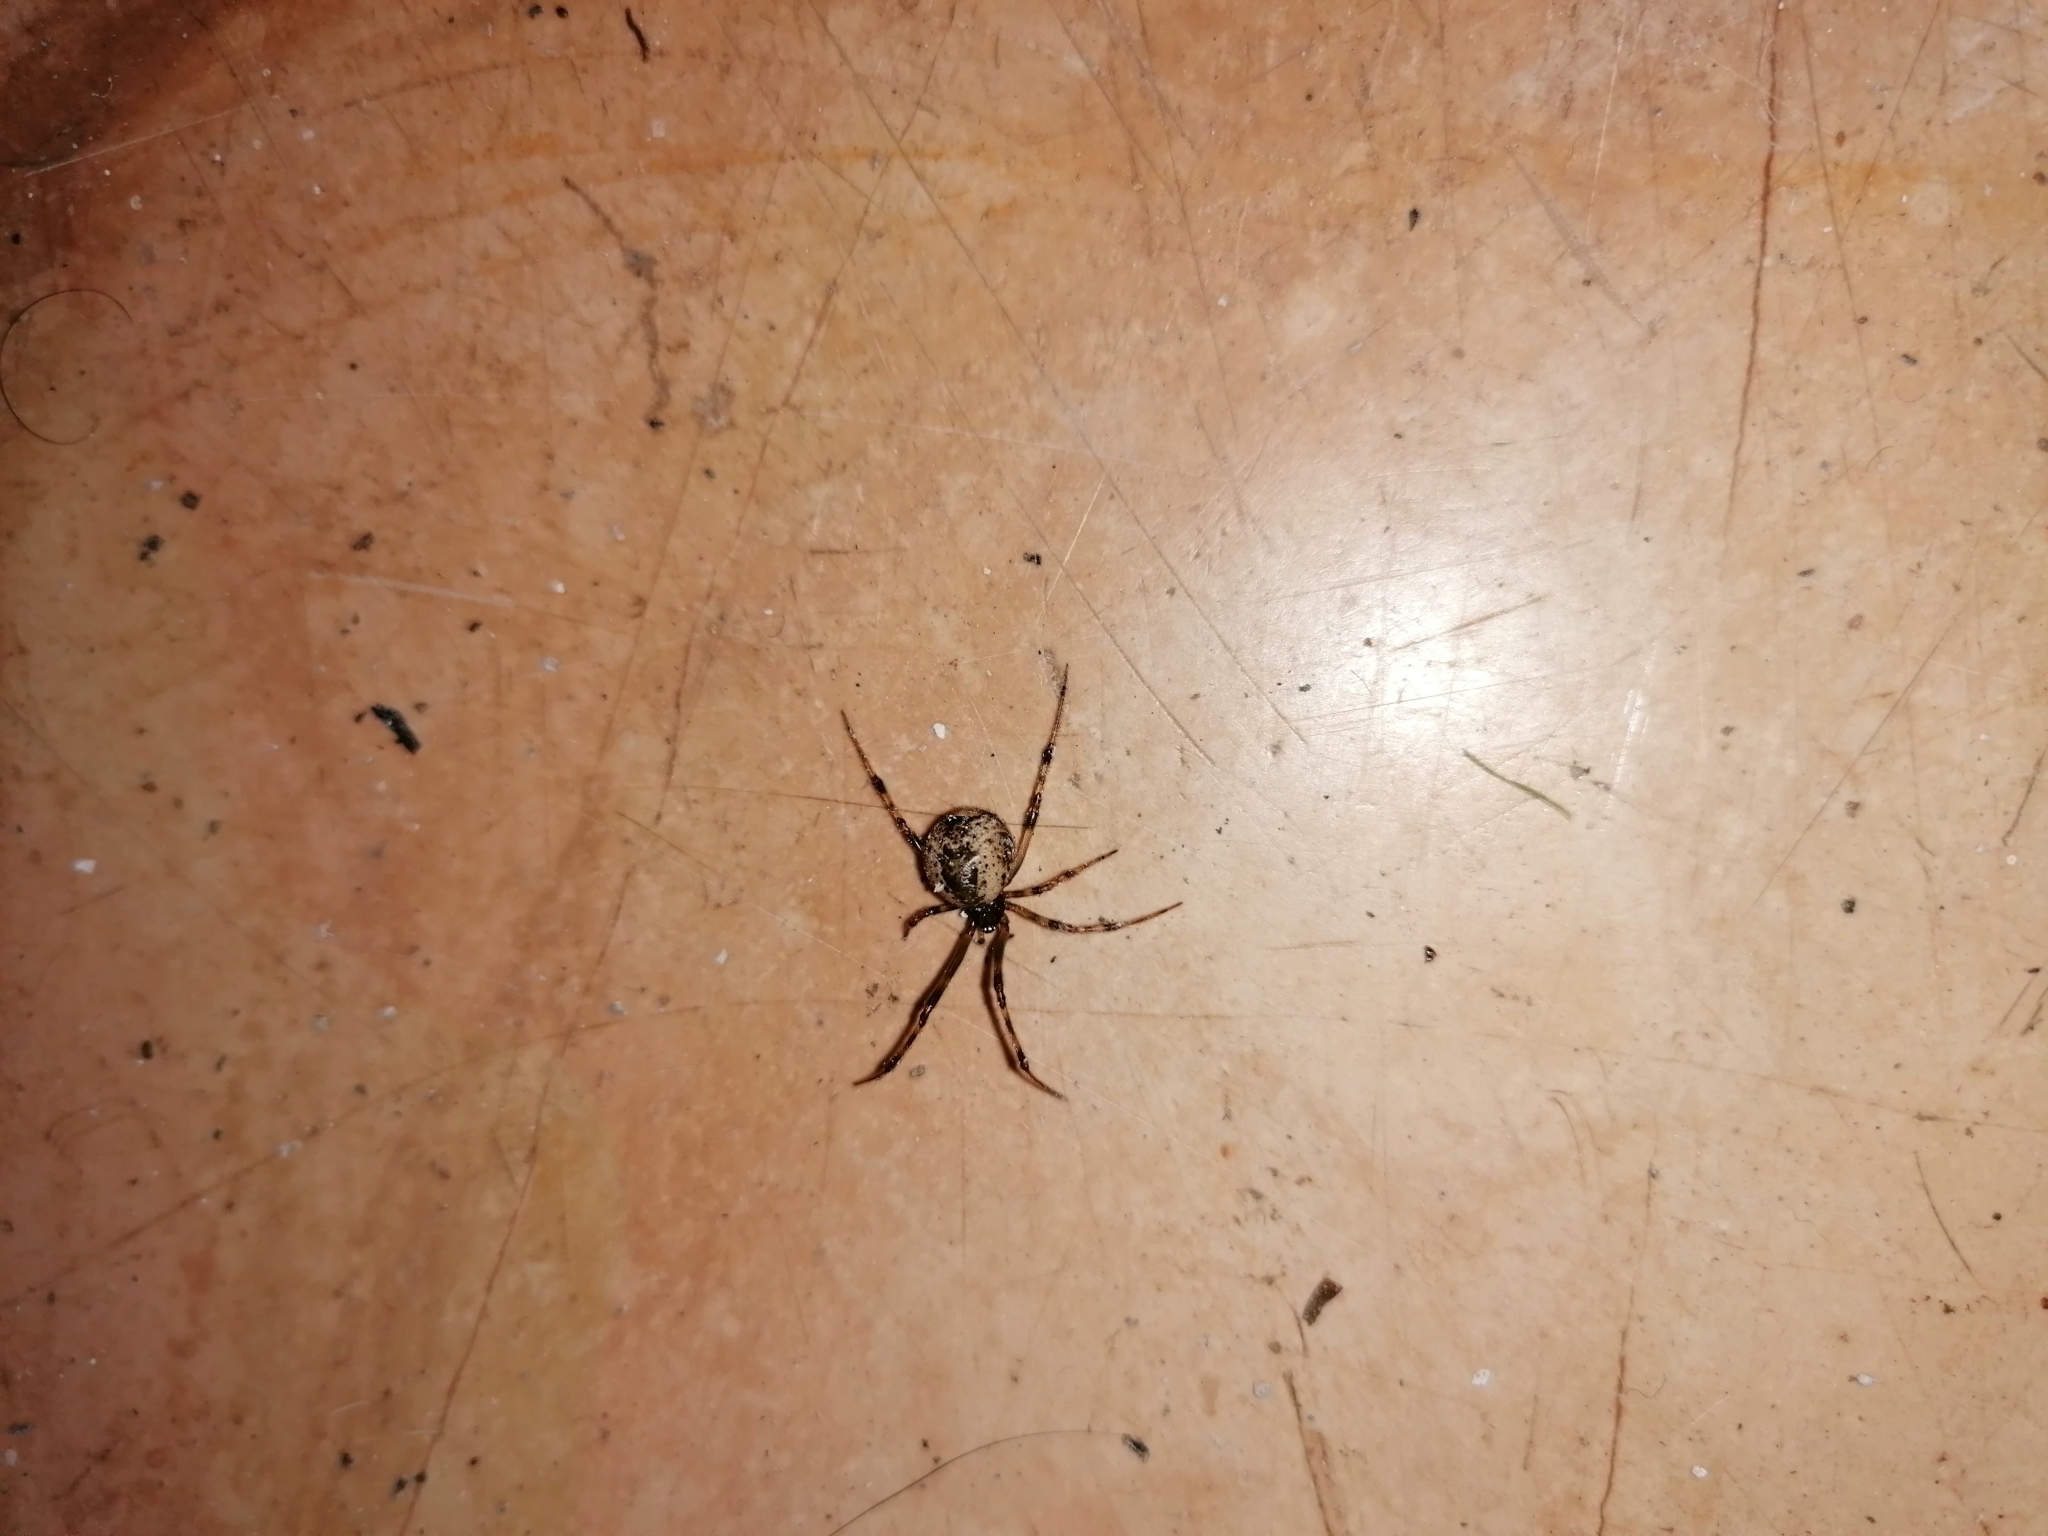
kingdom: Animalia
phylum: Arthropoda
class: Arachnida
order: Araneae
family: Theridiidae
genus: Parasteatoda
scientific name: Parasteatoda tepidariorum
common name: Common house spider
